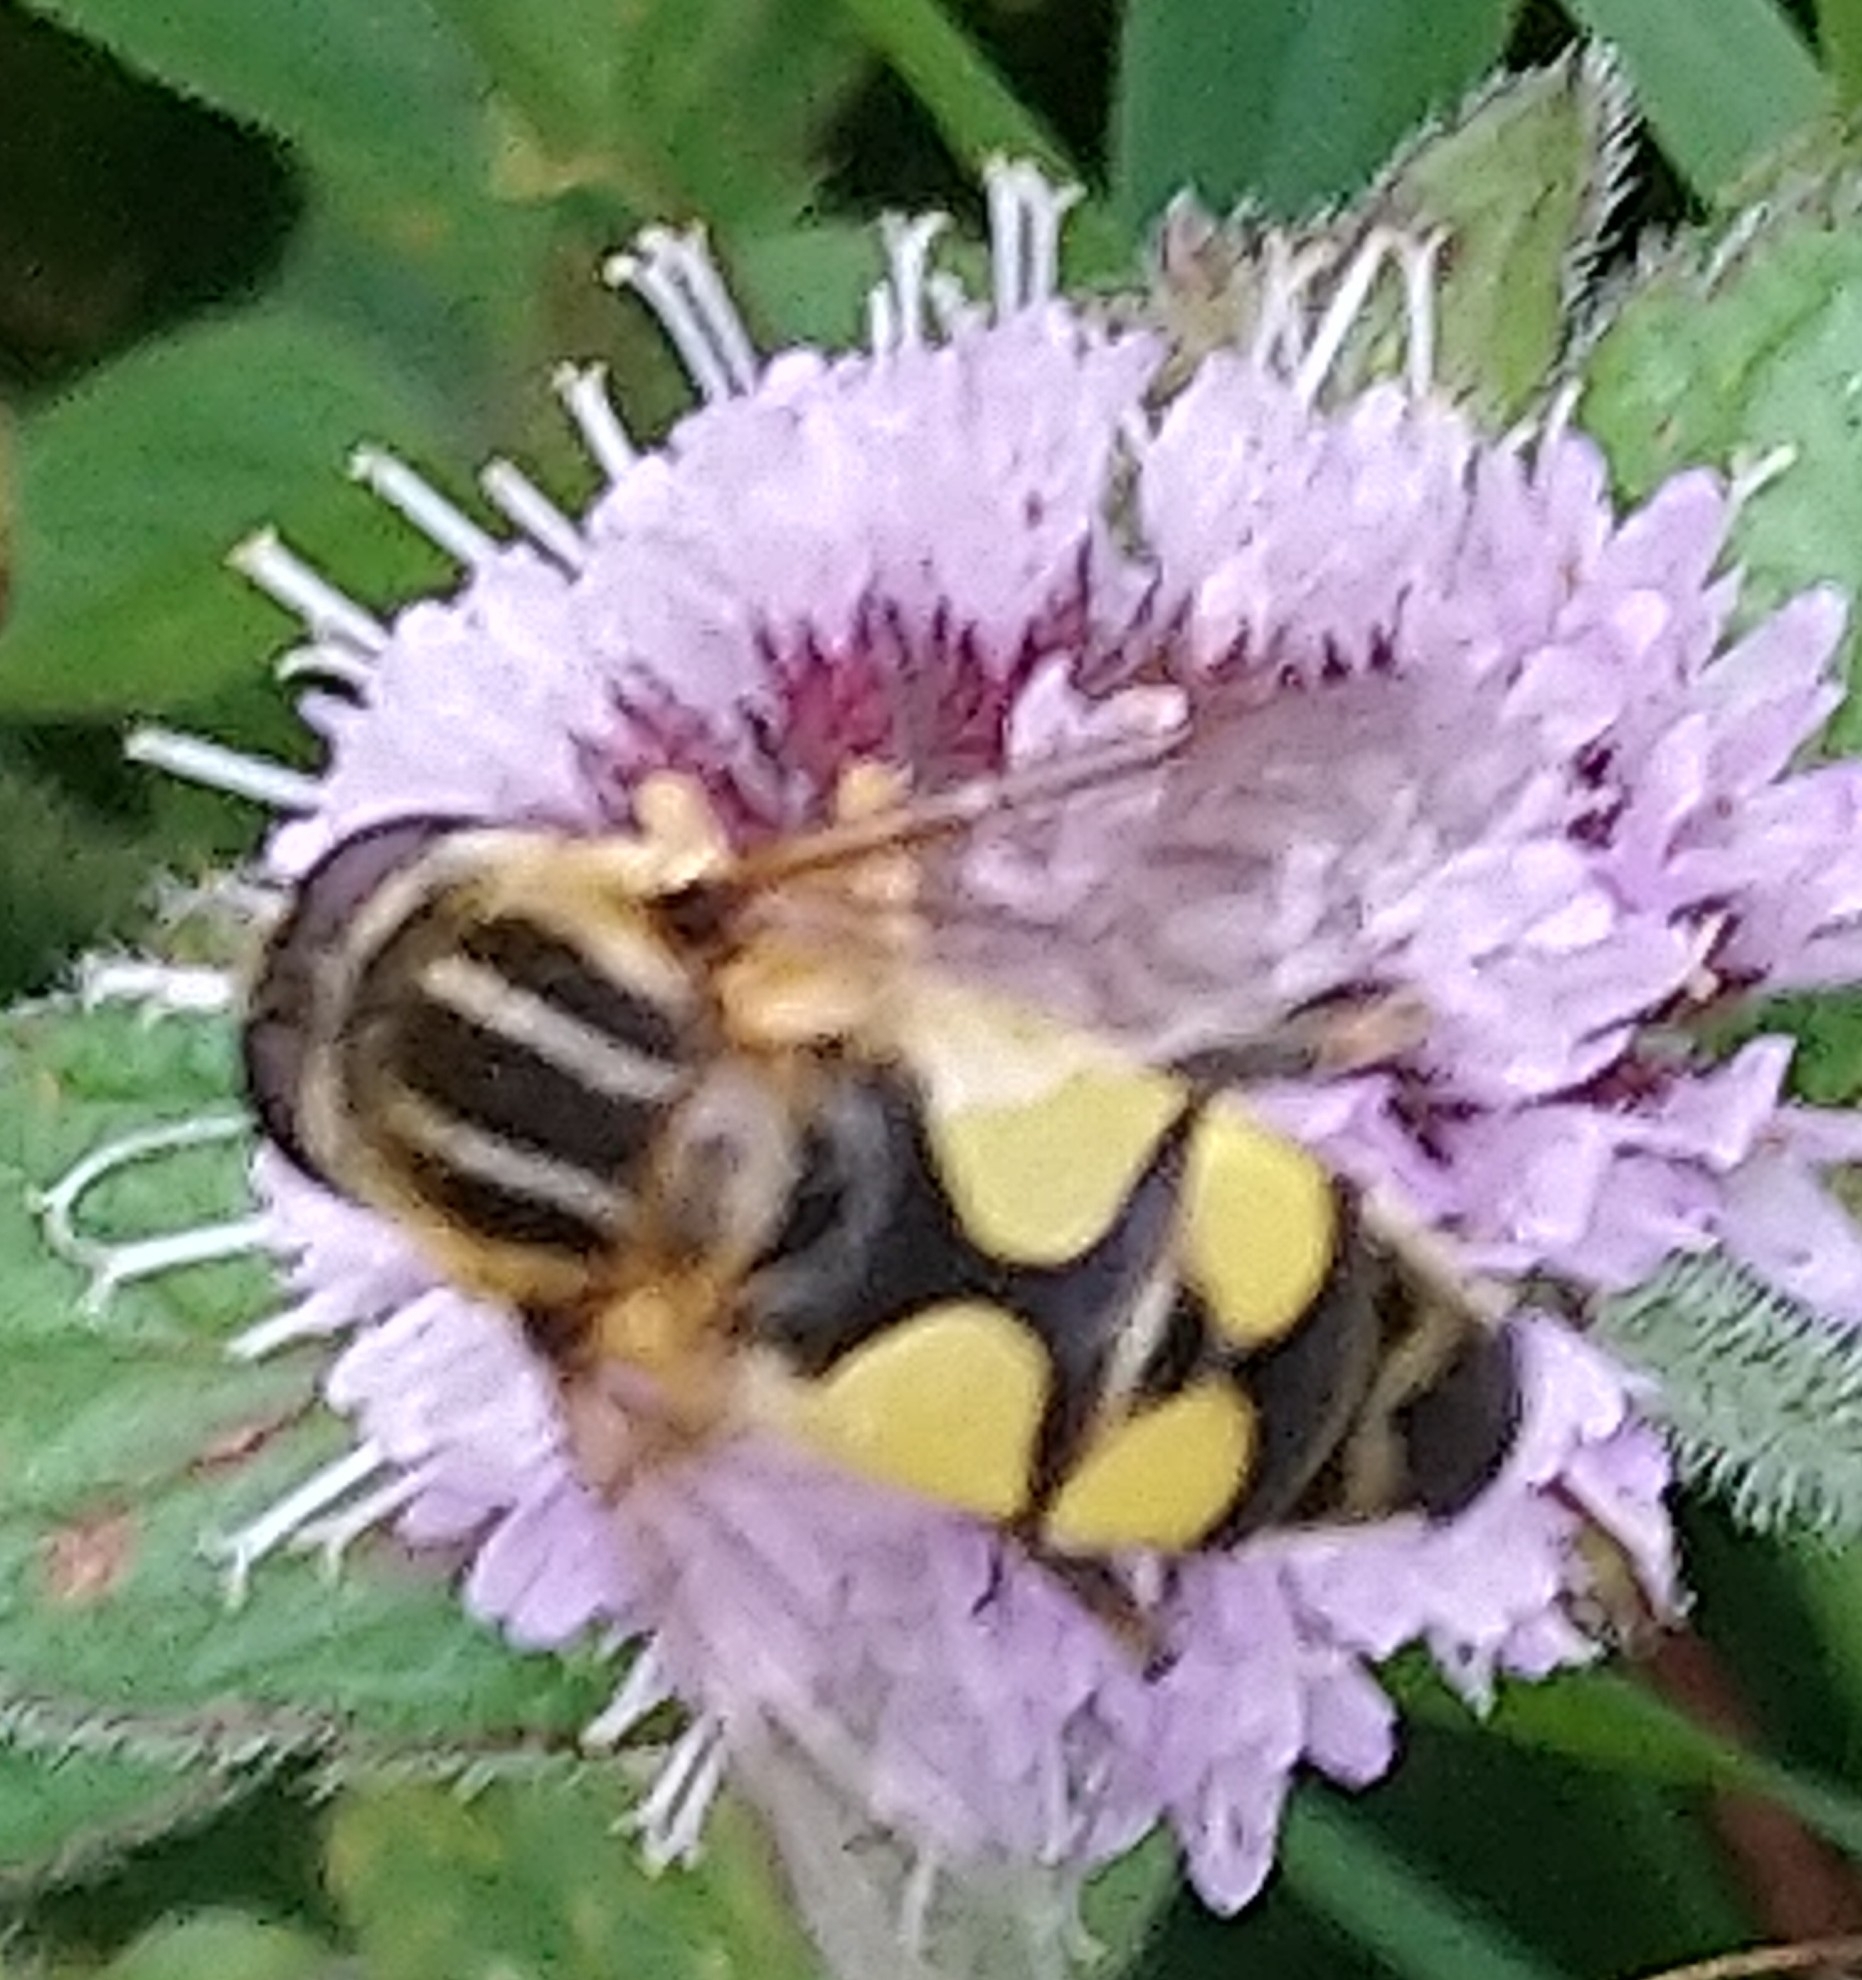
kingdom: Animalia
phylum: Arthropoda
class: Insecta
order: Diptera
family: Syrphidae
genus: Helophilus
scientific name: Helophilus trivittatus
